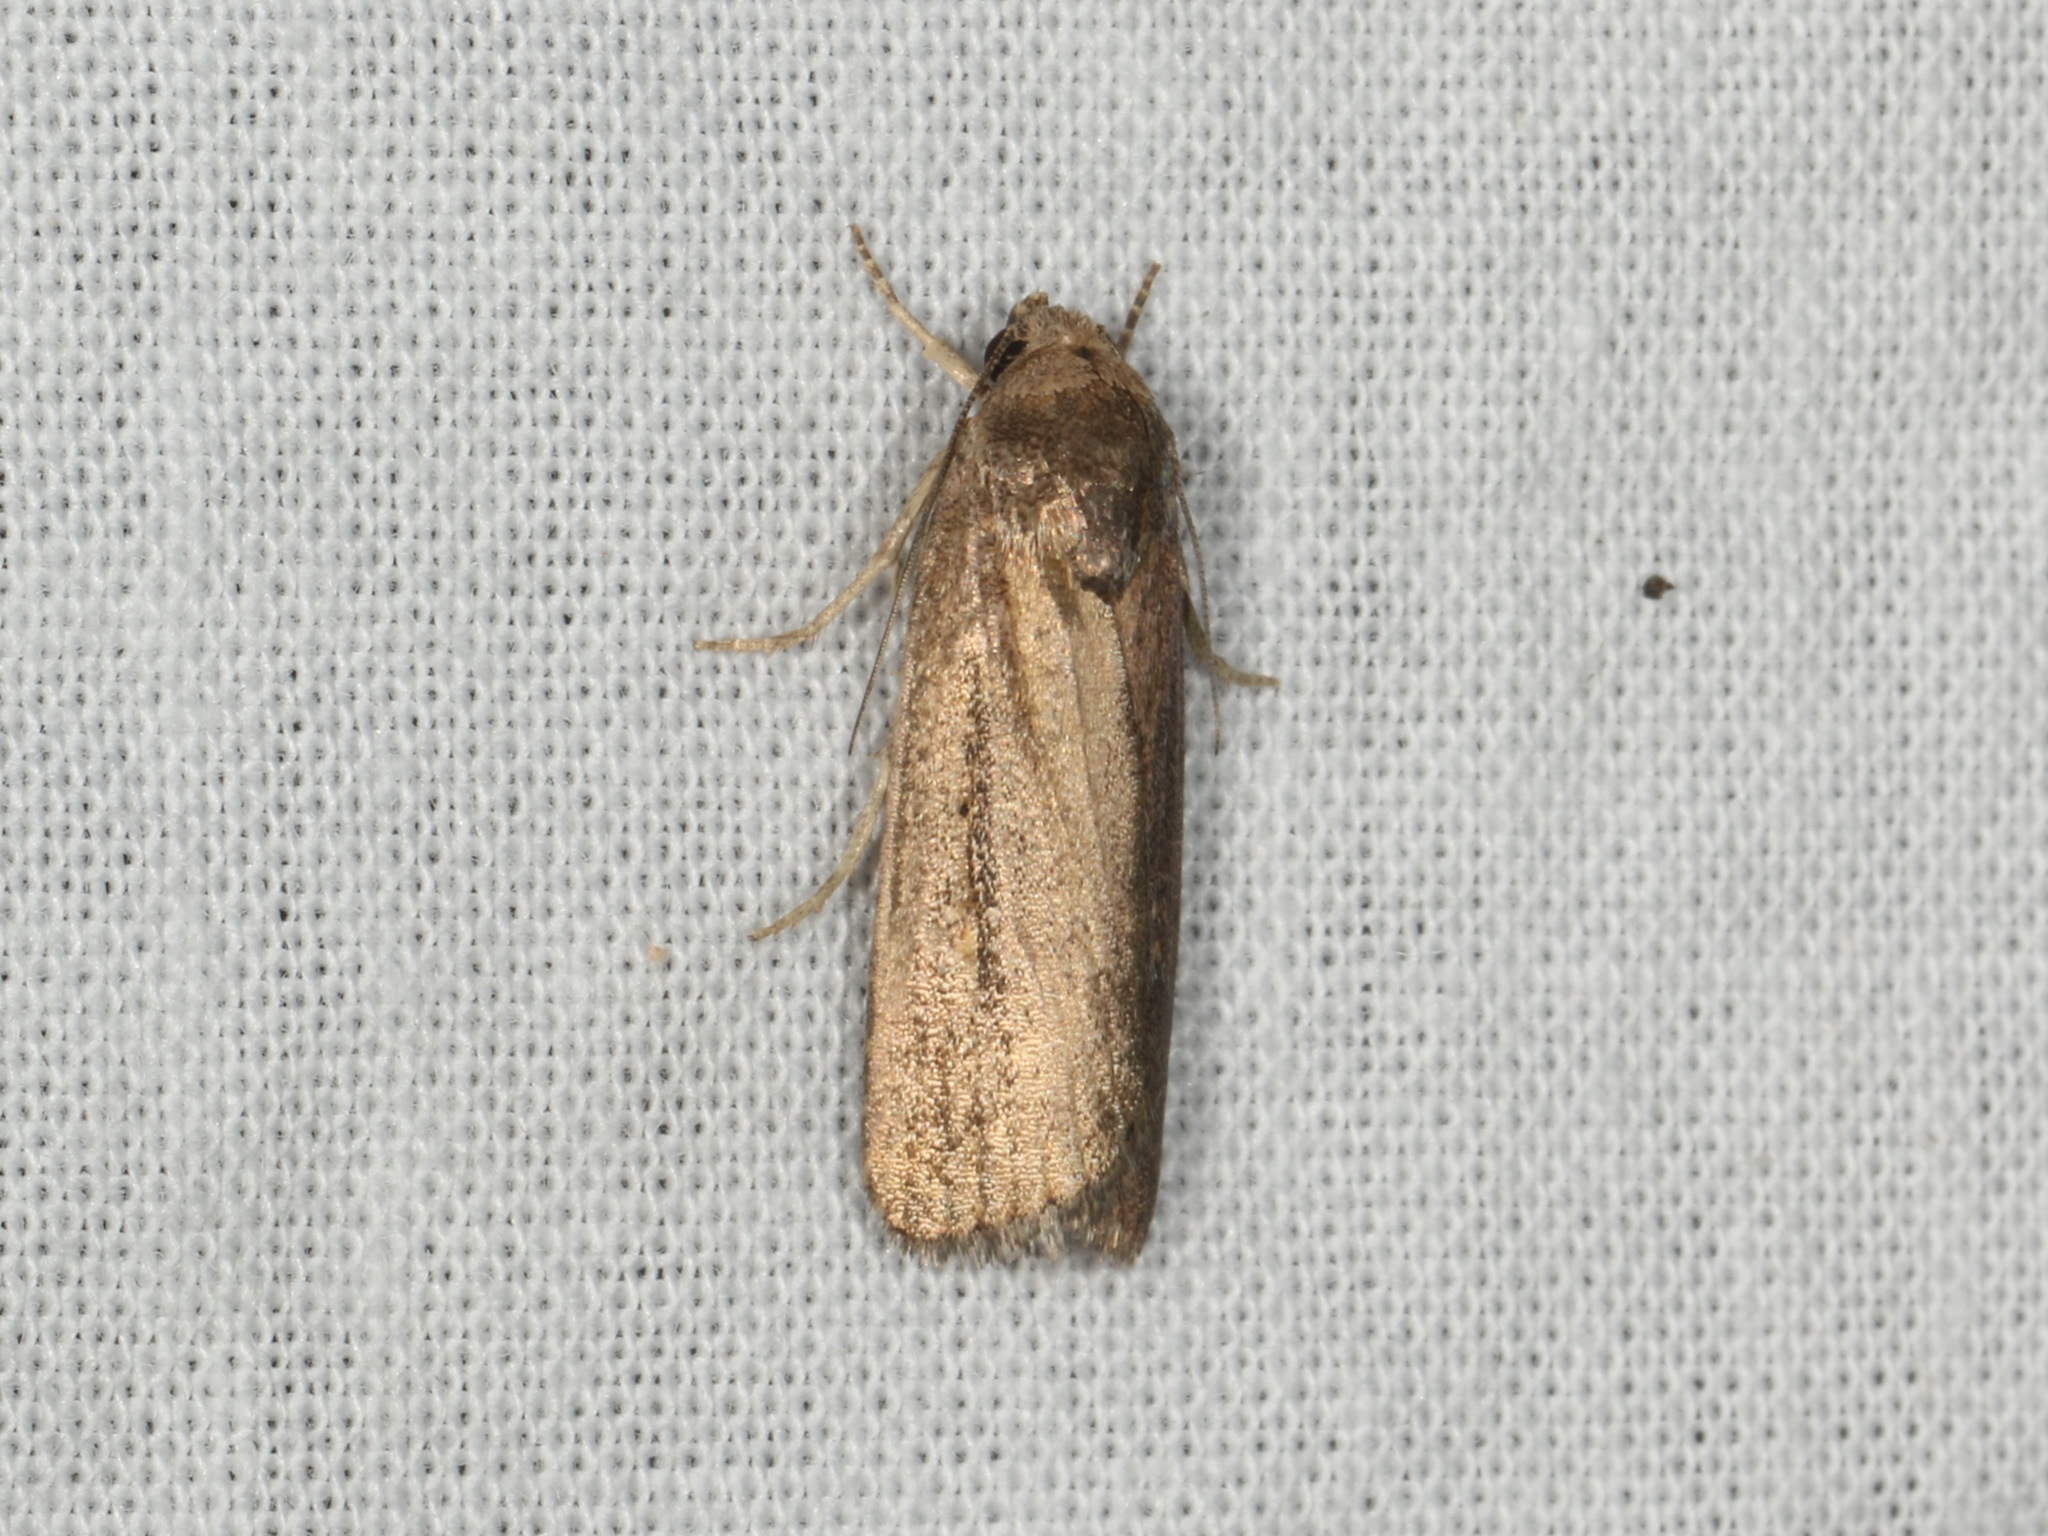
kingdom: Animalia
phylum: Arthropoda
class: Insecta
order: Lepidoptera
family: Noctuidae
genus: Athetis
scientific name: Athetis tenuis
